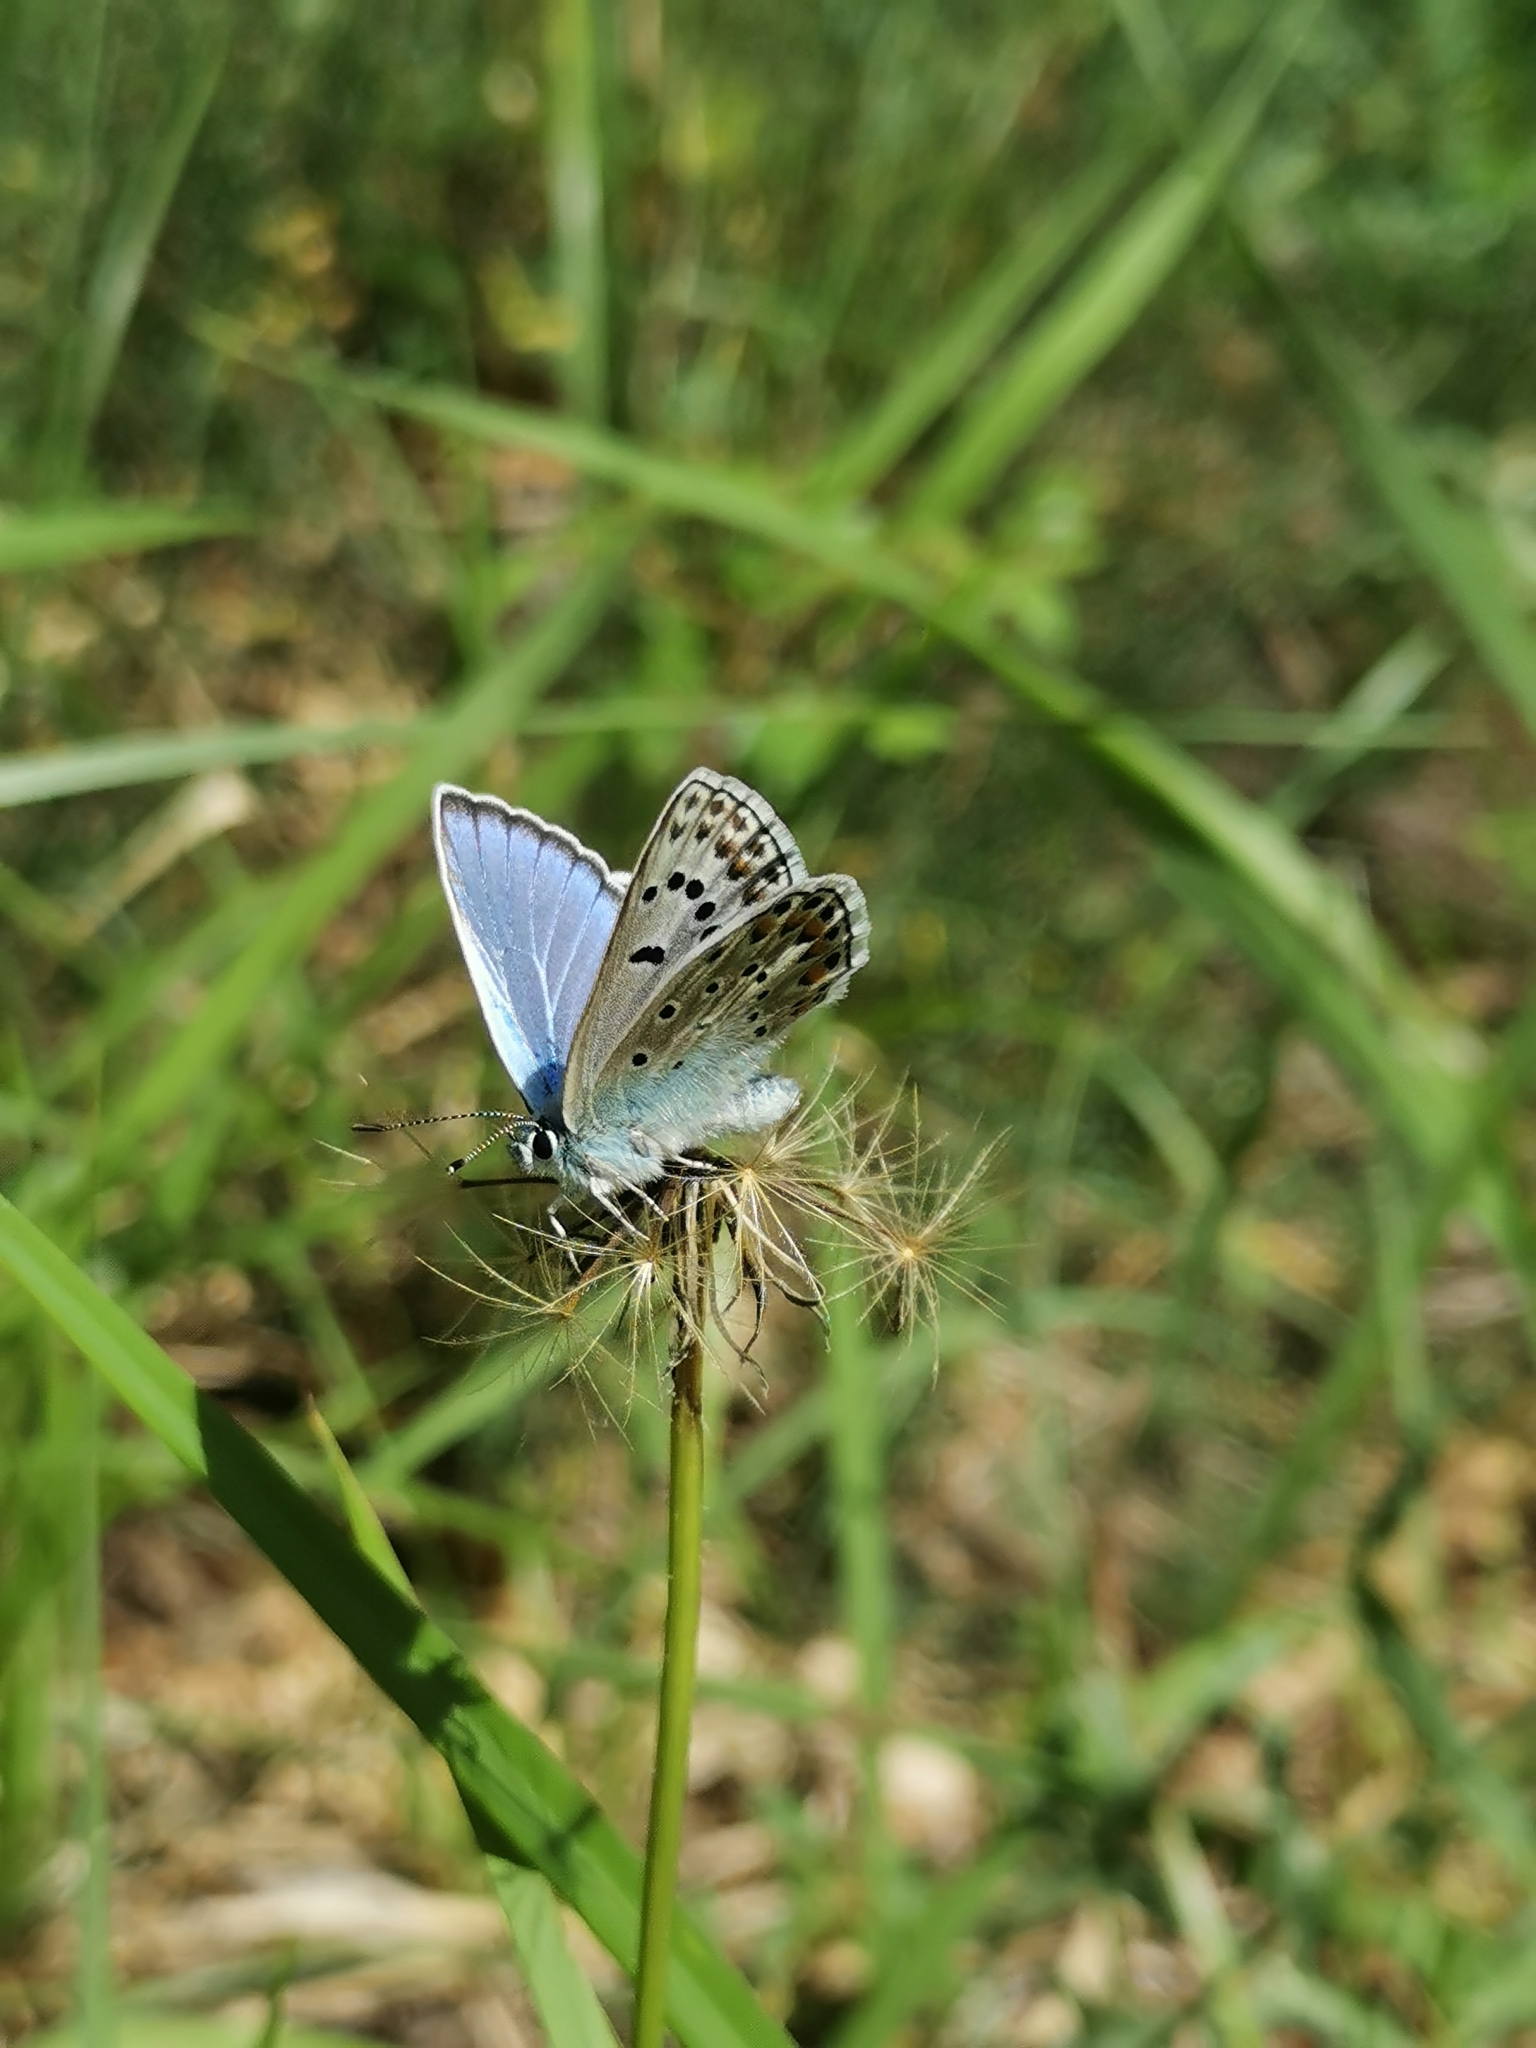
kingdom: Animalia
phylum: Arthropoda
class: Insecta
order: Lepidoptera
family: Lycaenidae
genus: Plebicula
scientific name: Plebicula escheri
